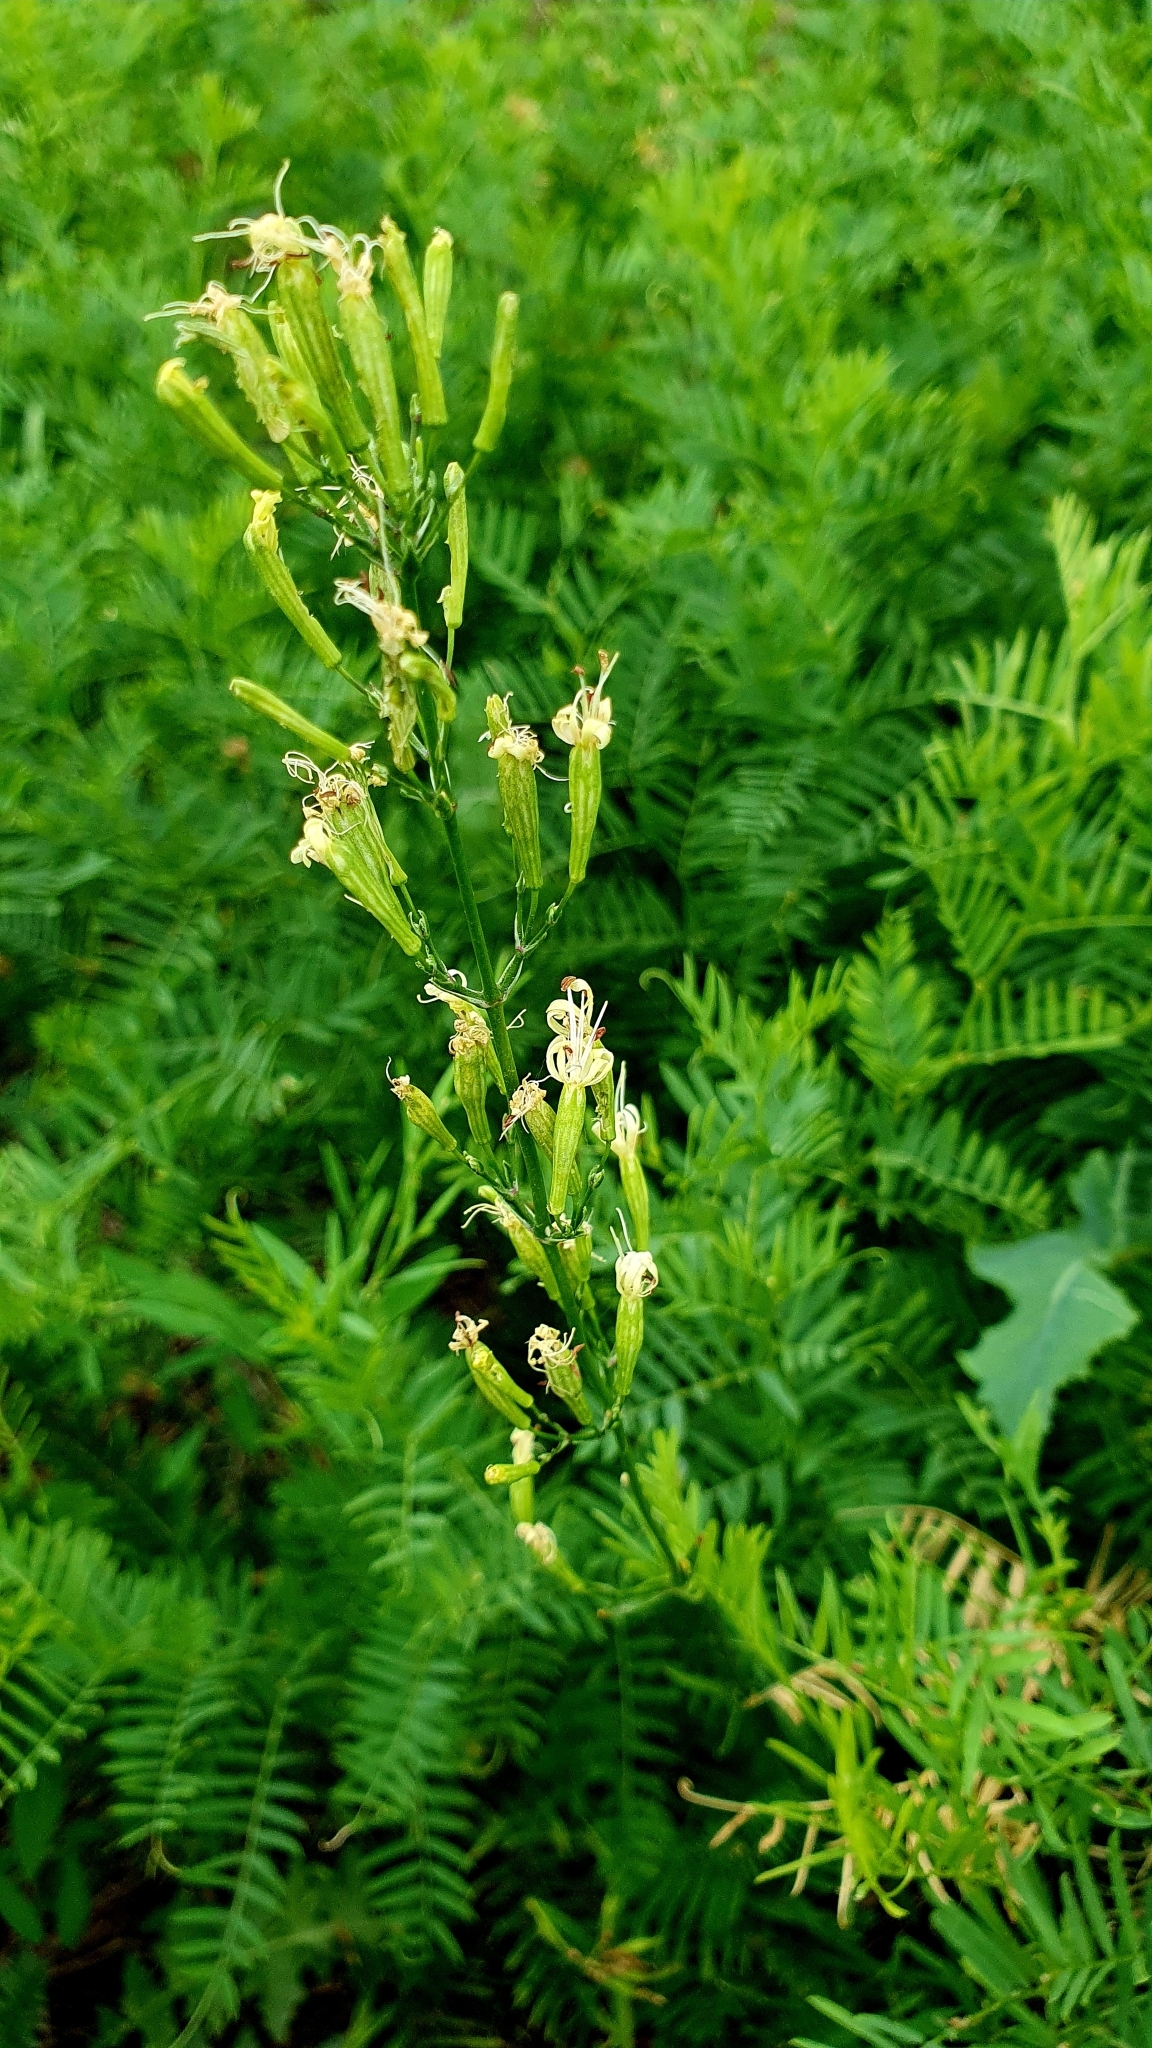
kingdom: Plantae
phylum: Tracheophyta
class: Magnoliopsida
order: Caryophyllales
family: Caryophyllaceae
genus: Silene
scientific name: Silene multiflora
